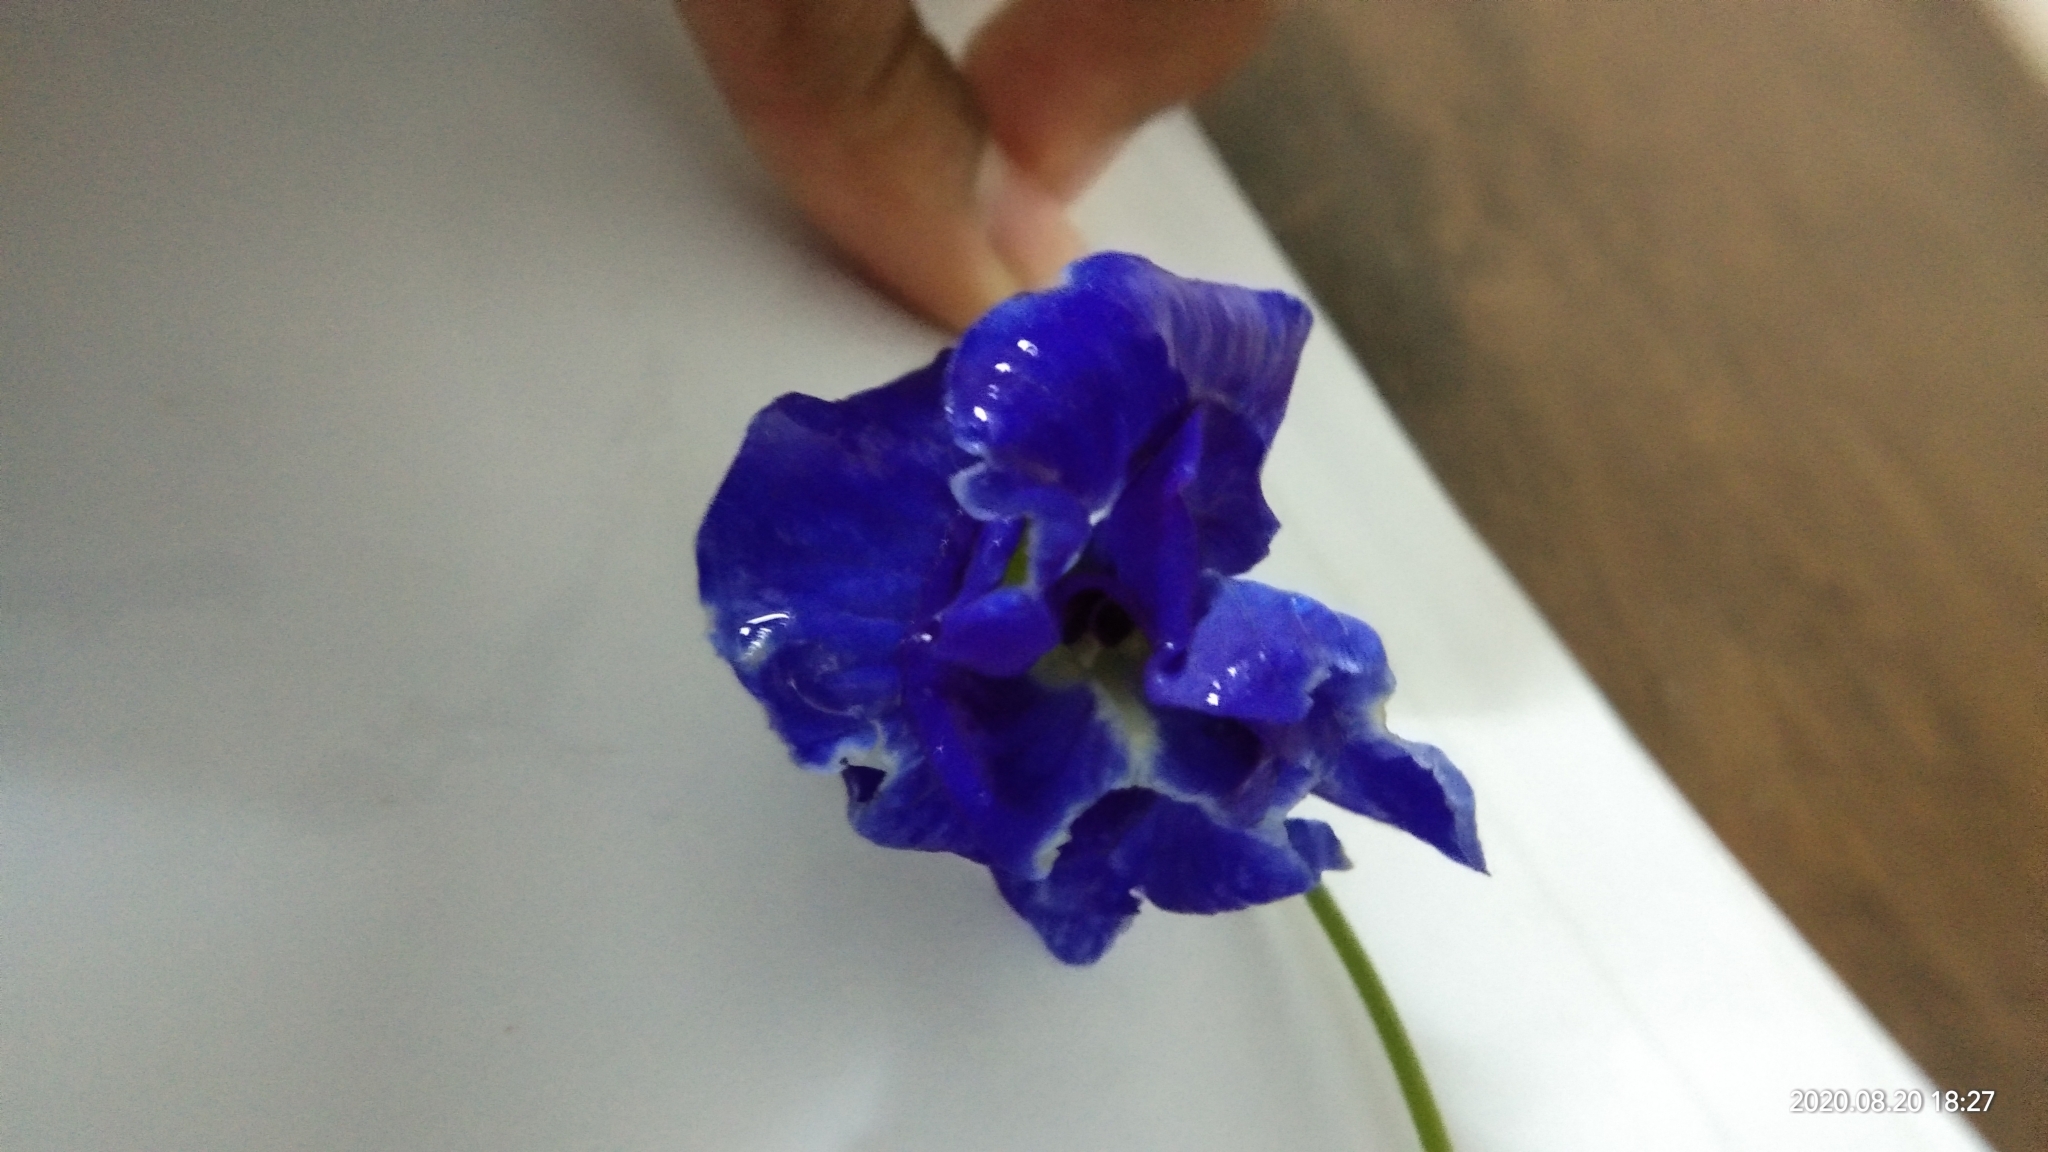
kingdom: Plantae
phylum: Tracheophyta
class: Magnoliopsida
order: Fabales
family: Fabaceae
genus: Clitoria
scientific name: Clitoria ternatea
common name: Asian pigeonwings
